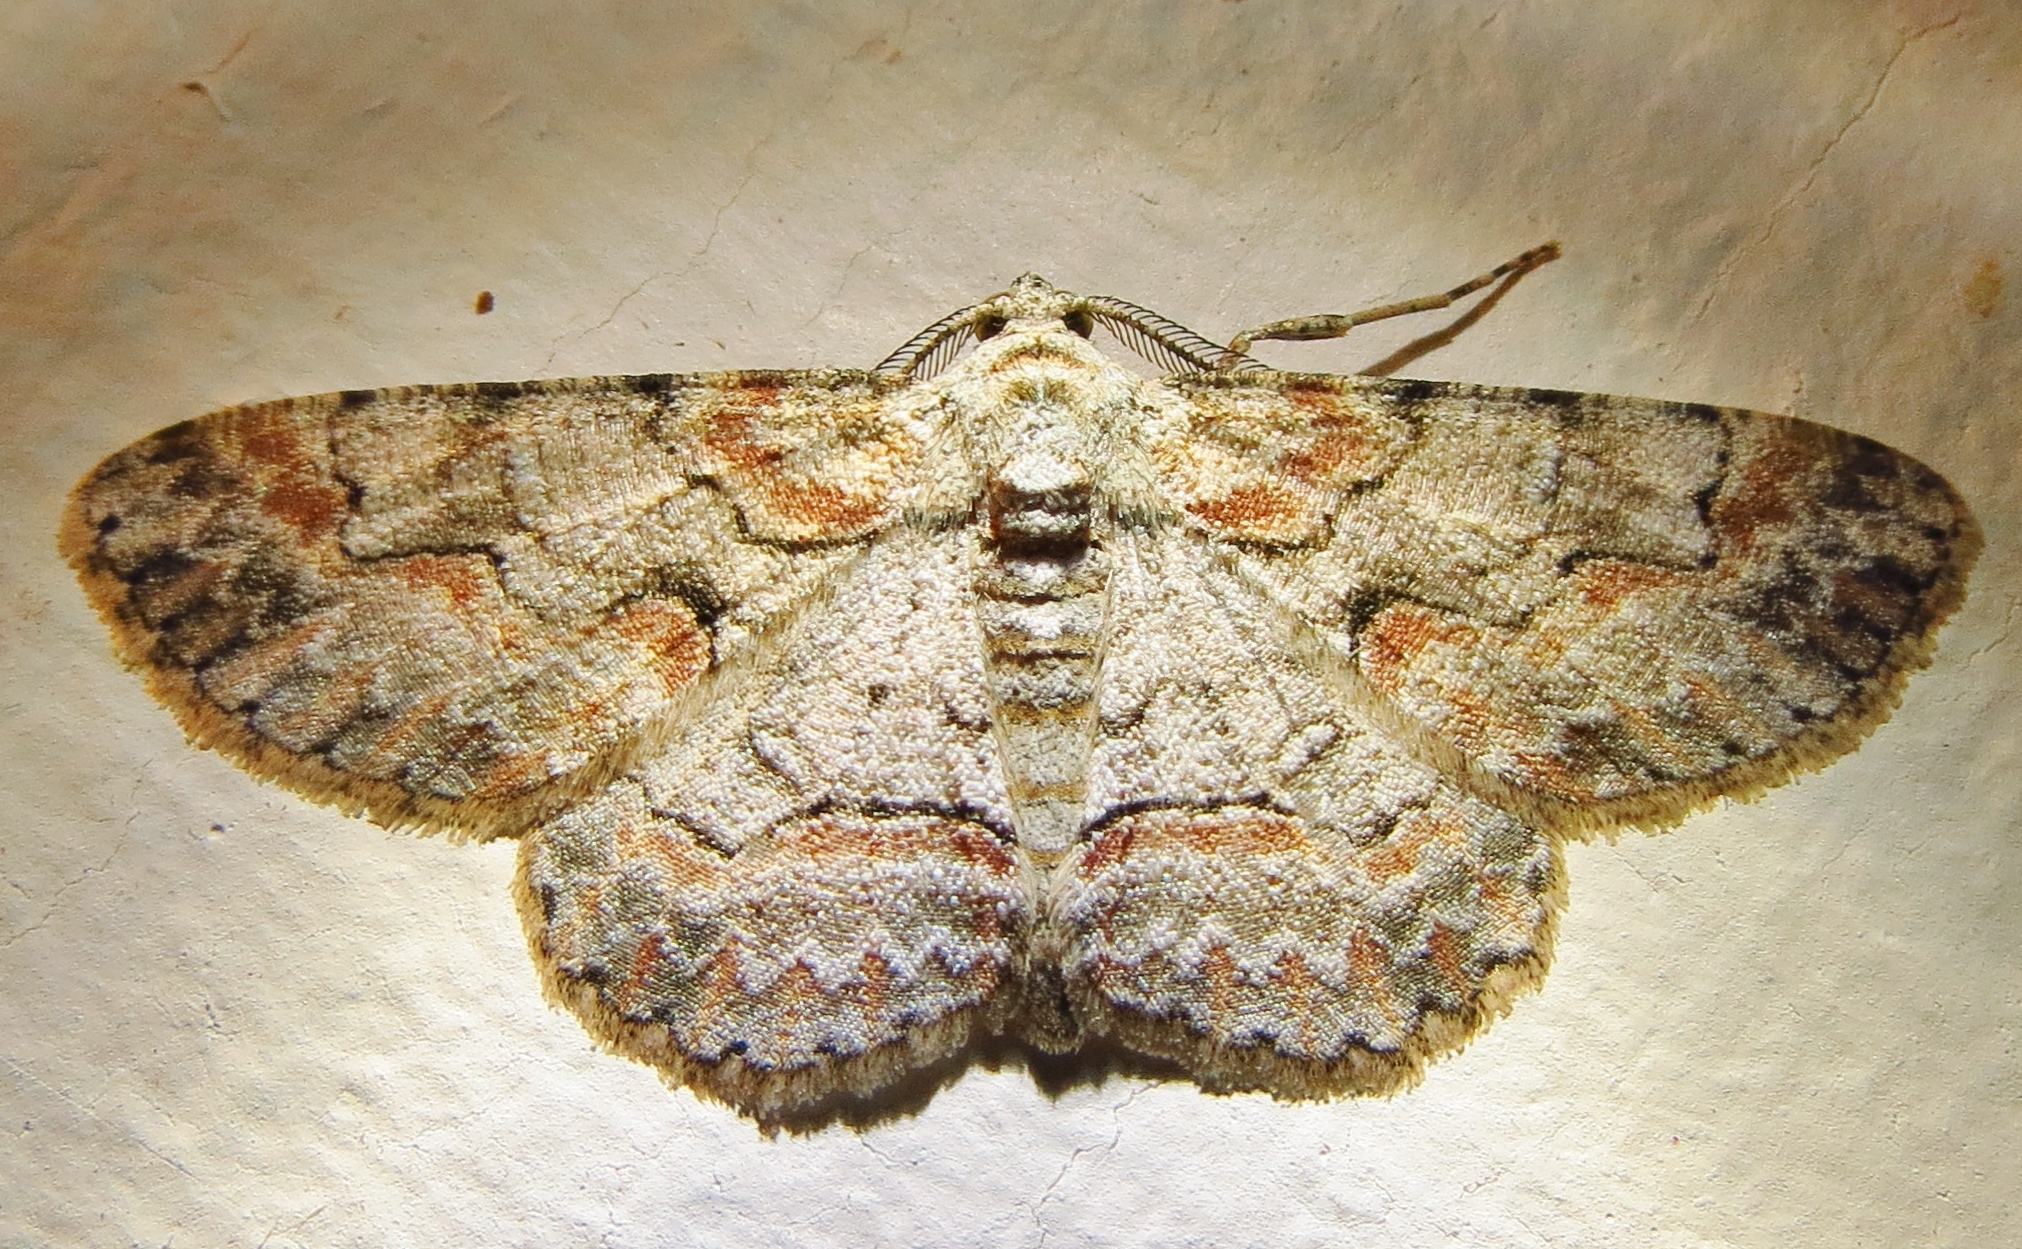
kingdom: Animalia
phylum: Arthropoda
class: Insecta
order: Lepidoptera
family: Geometridae
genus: Iridopsis
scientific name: Iridopsis defectaria
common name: Brown-shaded gray
